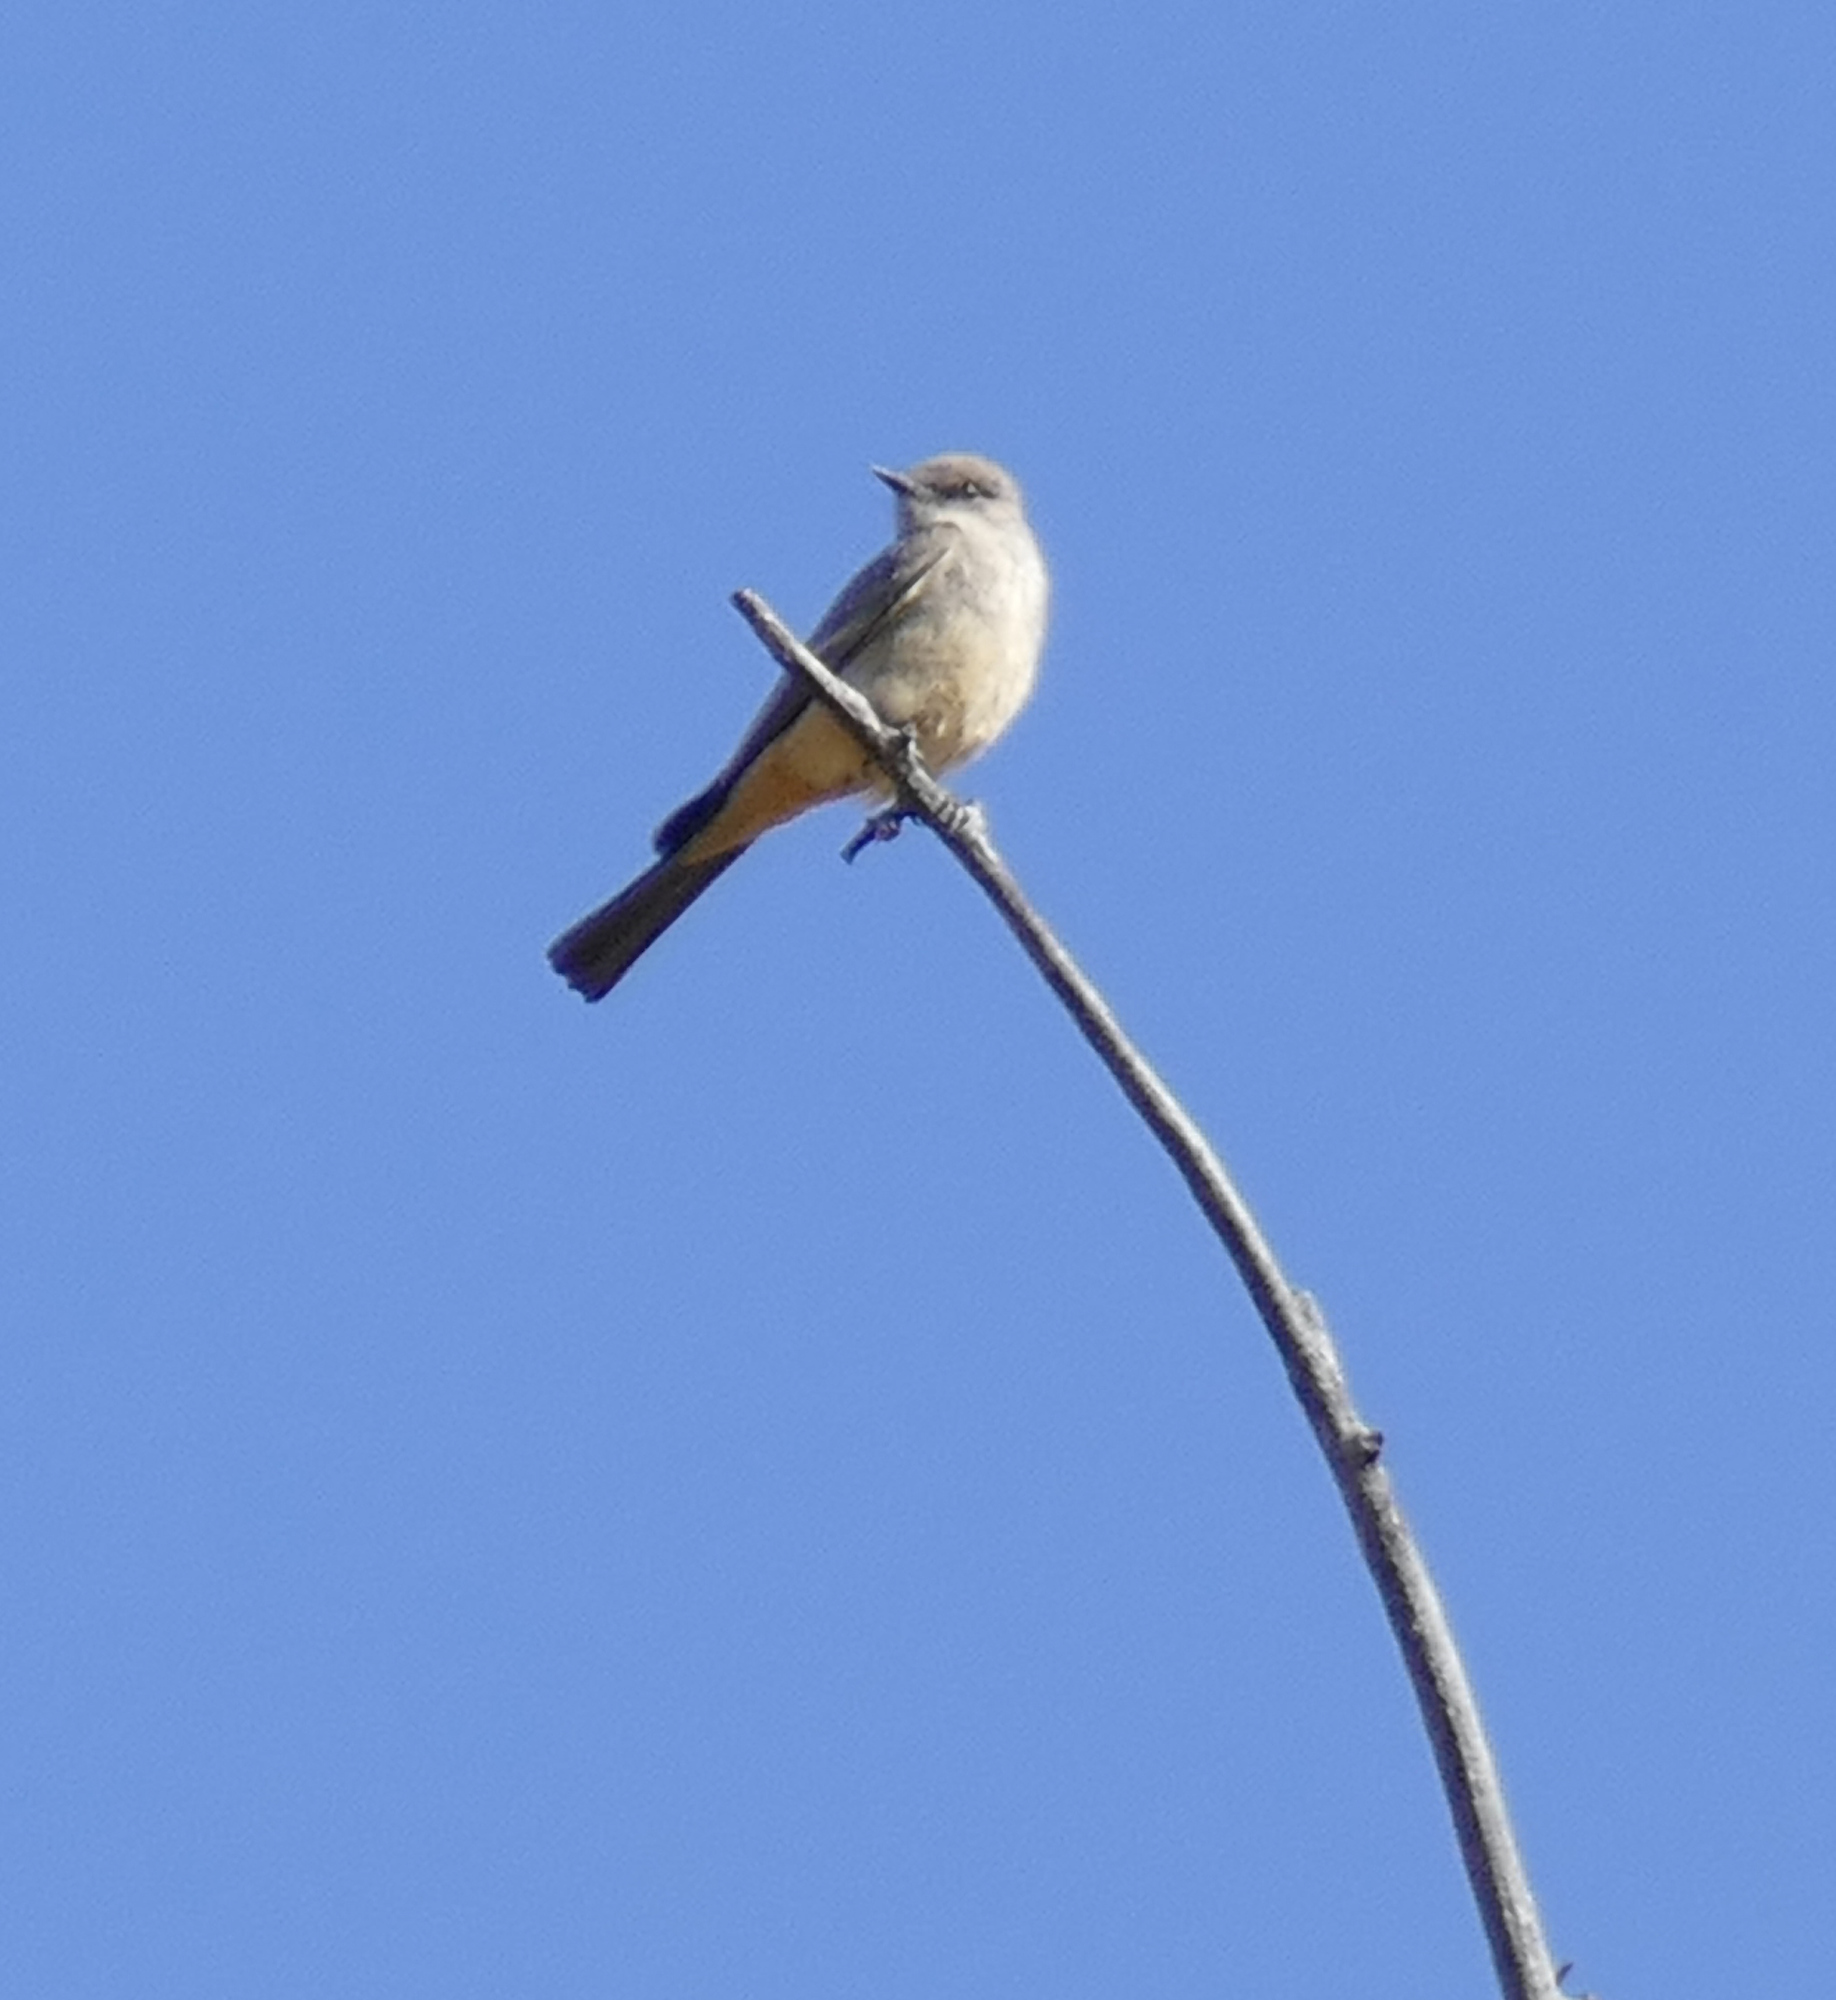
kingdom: Animalia
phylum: Chordata
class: Aves
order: Passeriformes
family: Tyrannidae
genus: Sayornis
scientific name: Sayornis saya
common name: Say's phoebe
